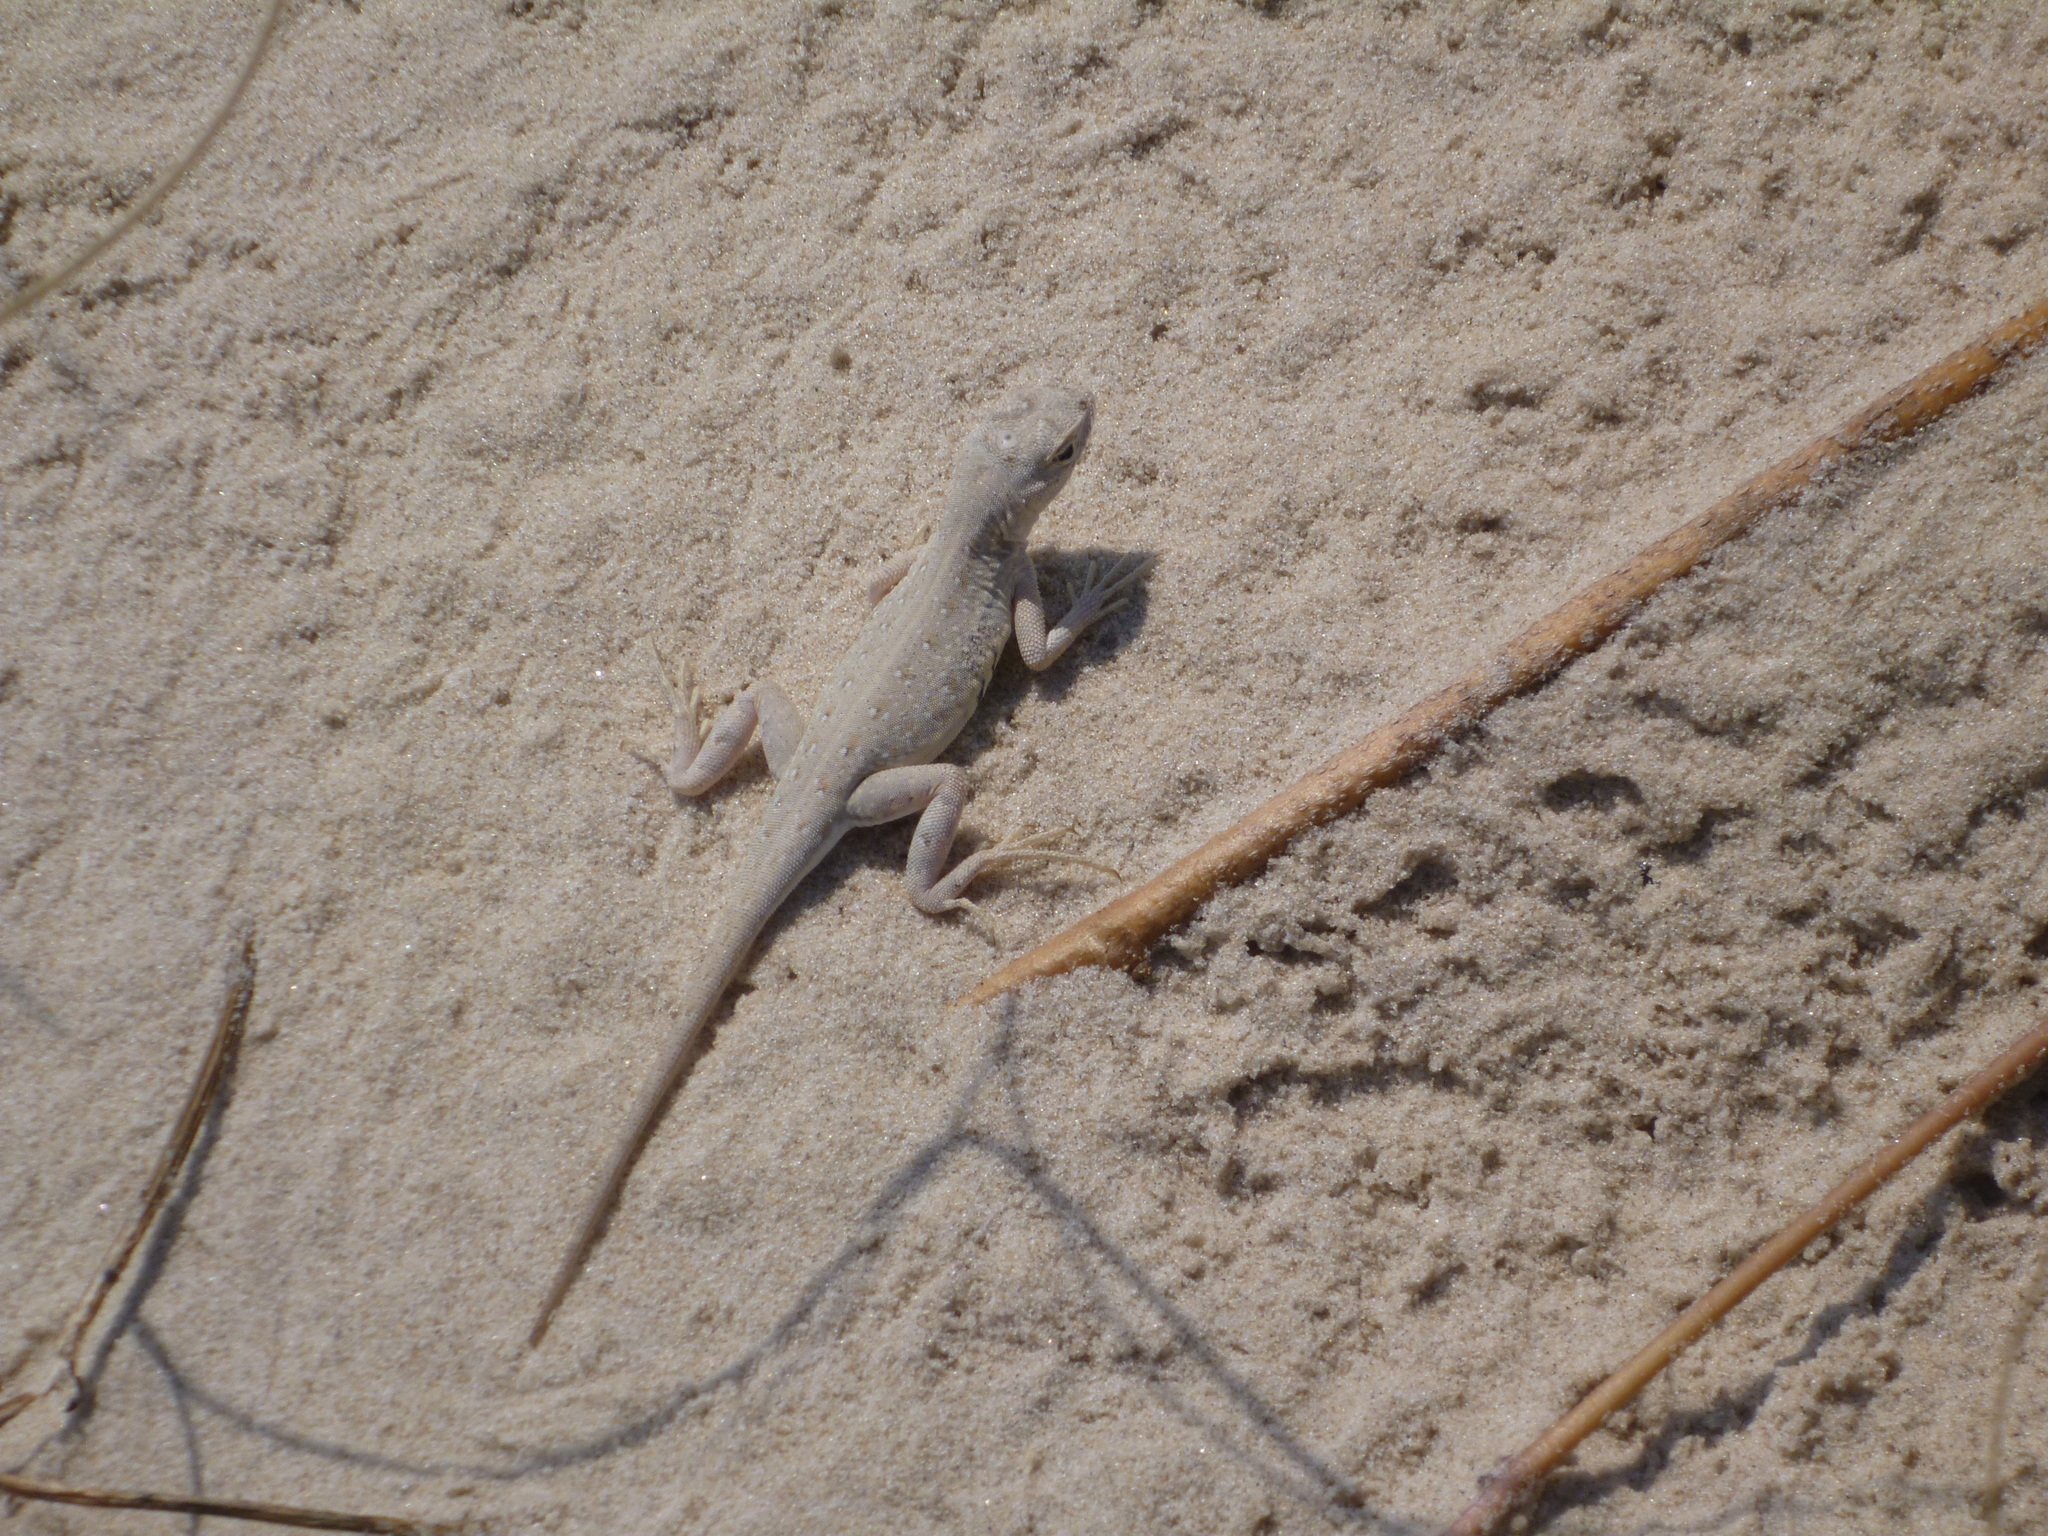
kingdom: Animalia
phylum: Chordata
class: Squamata
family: Phrynosomatidae
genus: Holbrookia
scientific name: Holbrookia propinqua
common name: Keeled earless lizard
